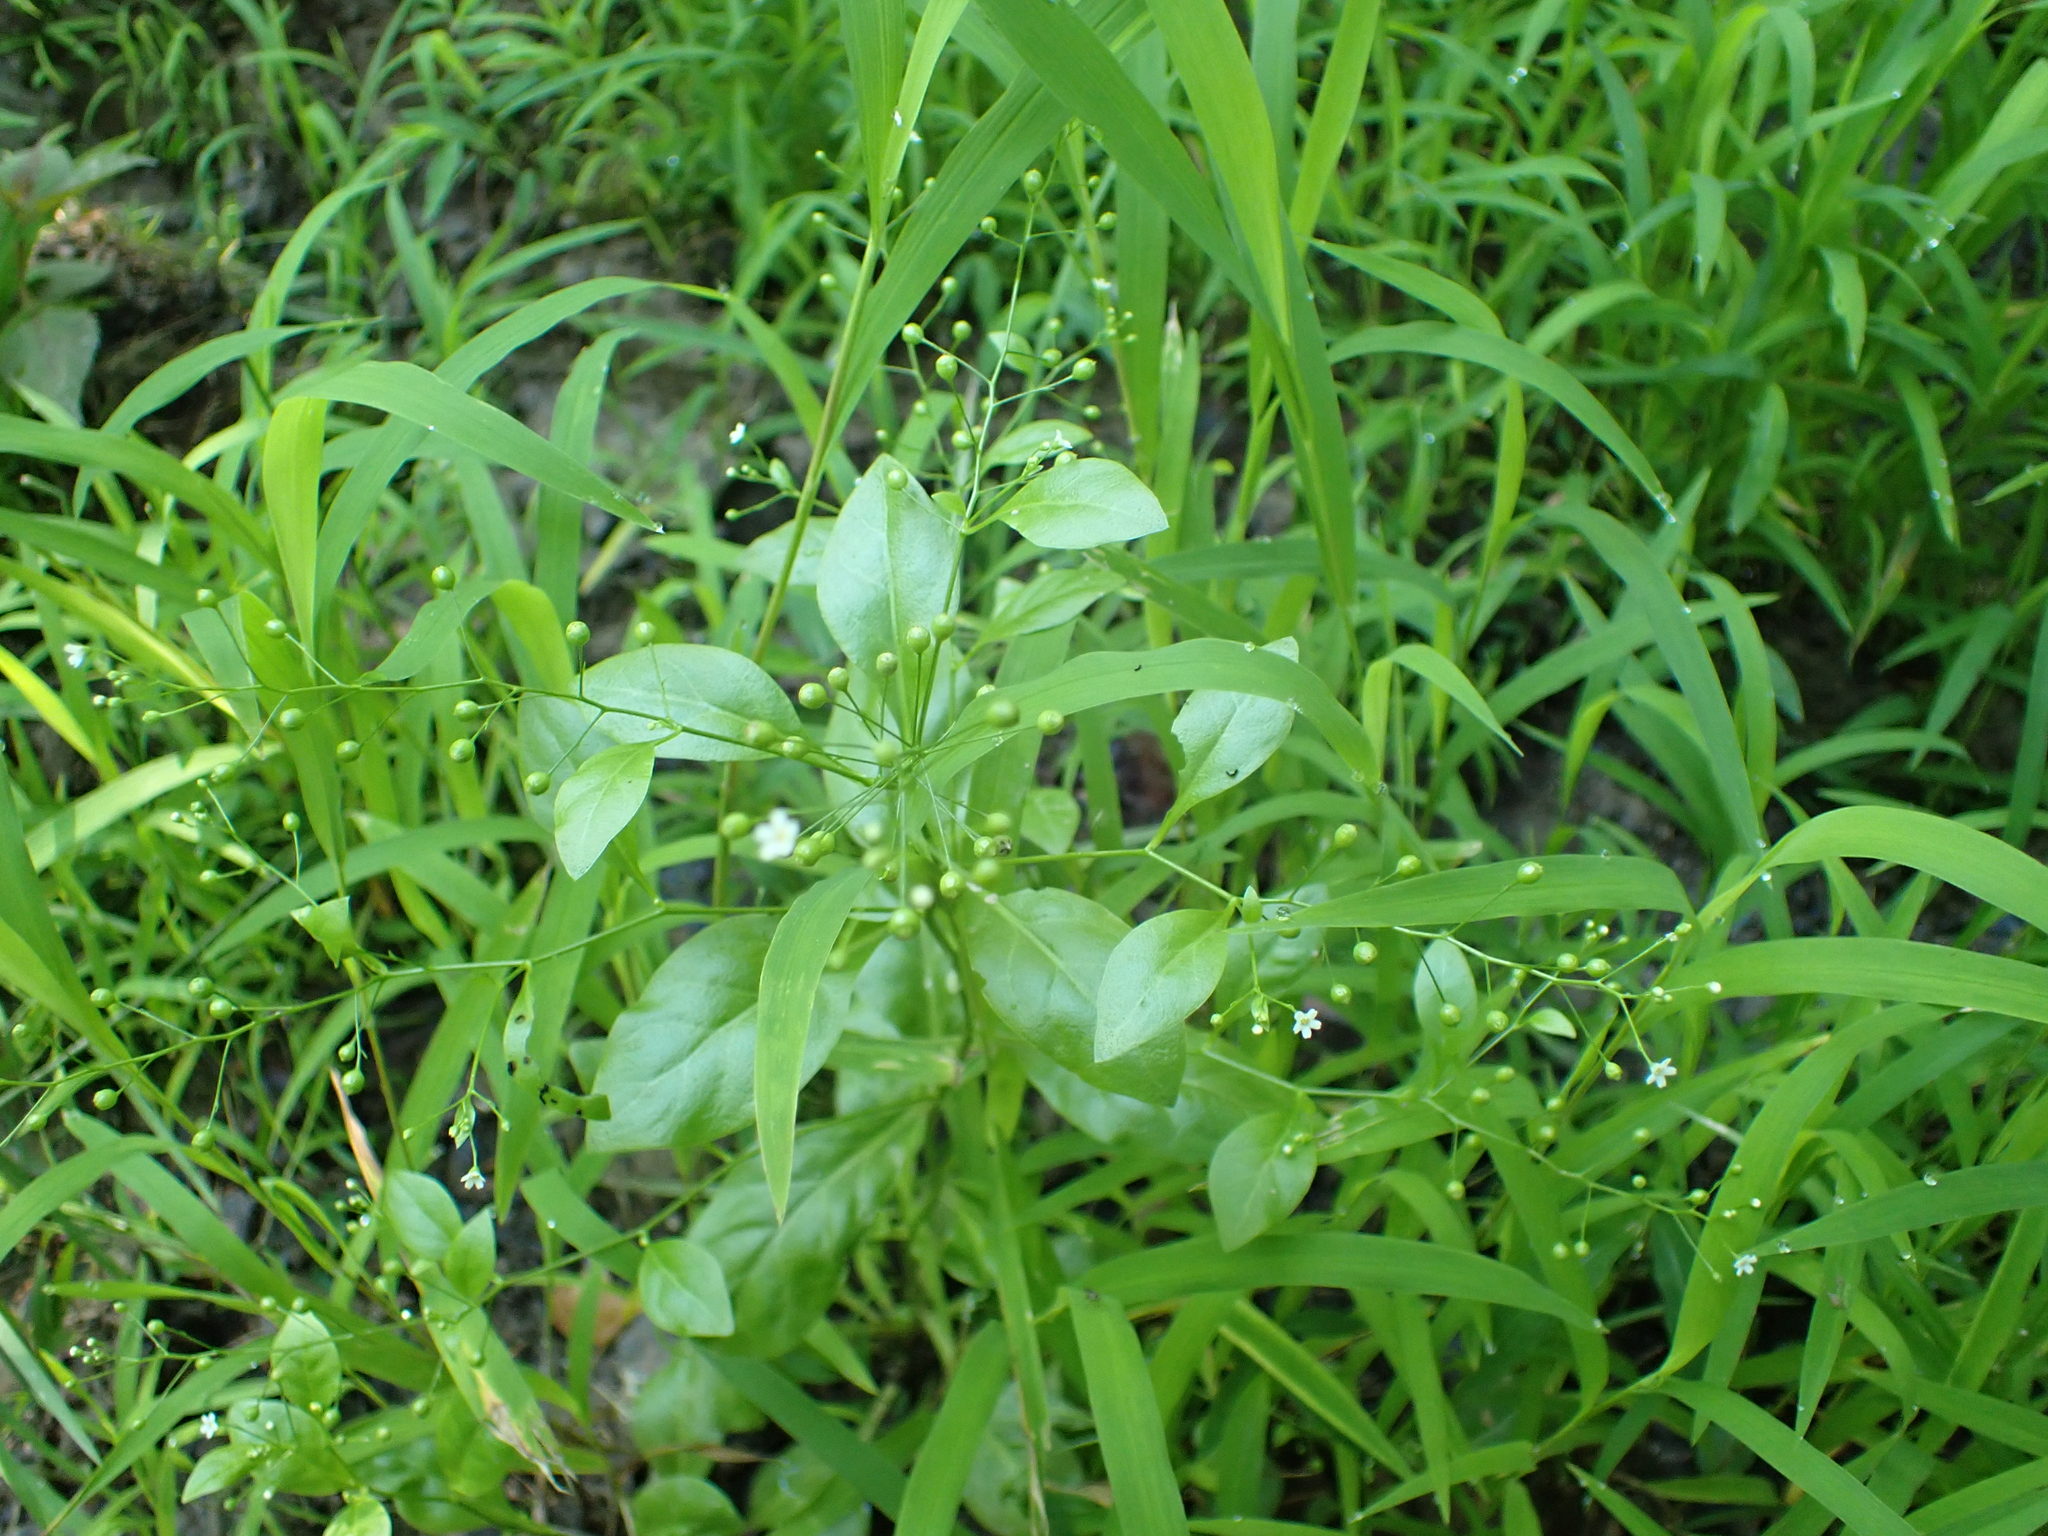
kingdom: Plantae
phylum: Tracheophyta
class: Magnoliopsida
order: Ericales
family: Primulaceae
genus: Samolus
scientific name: Samolus parviflorus
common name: False water pimpernel
